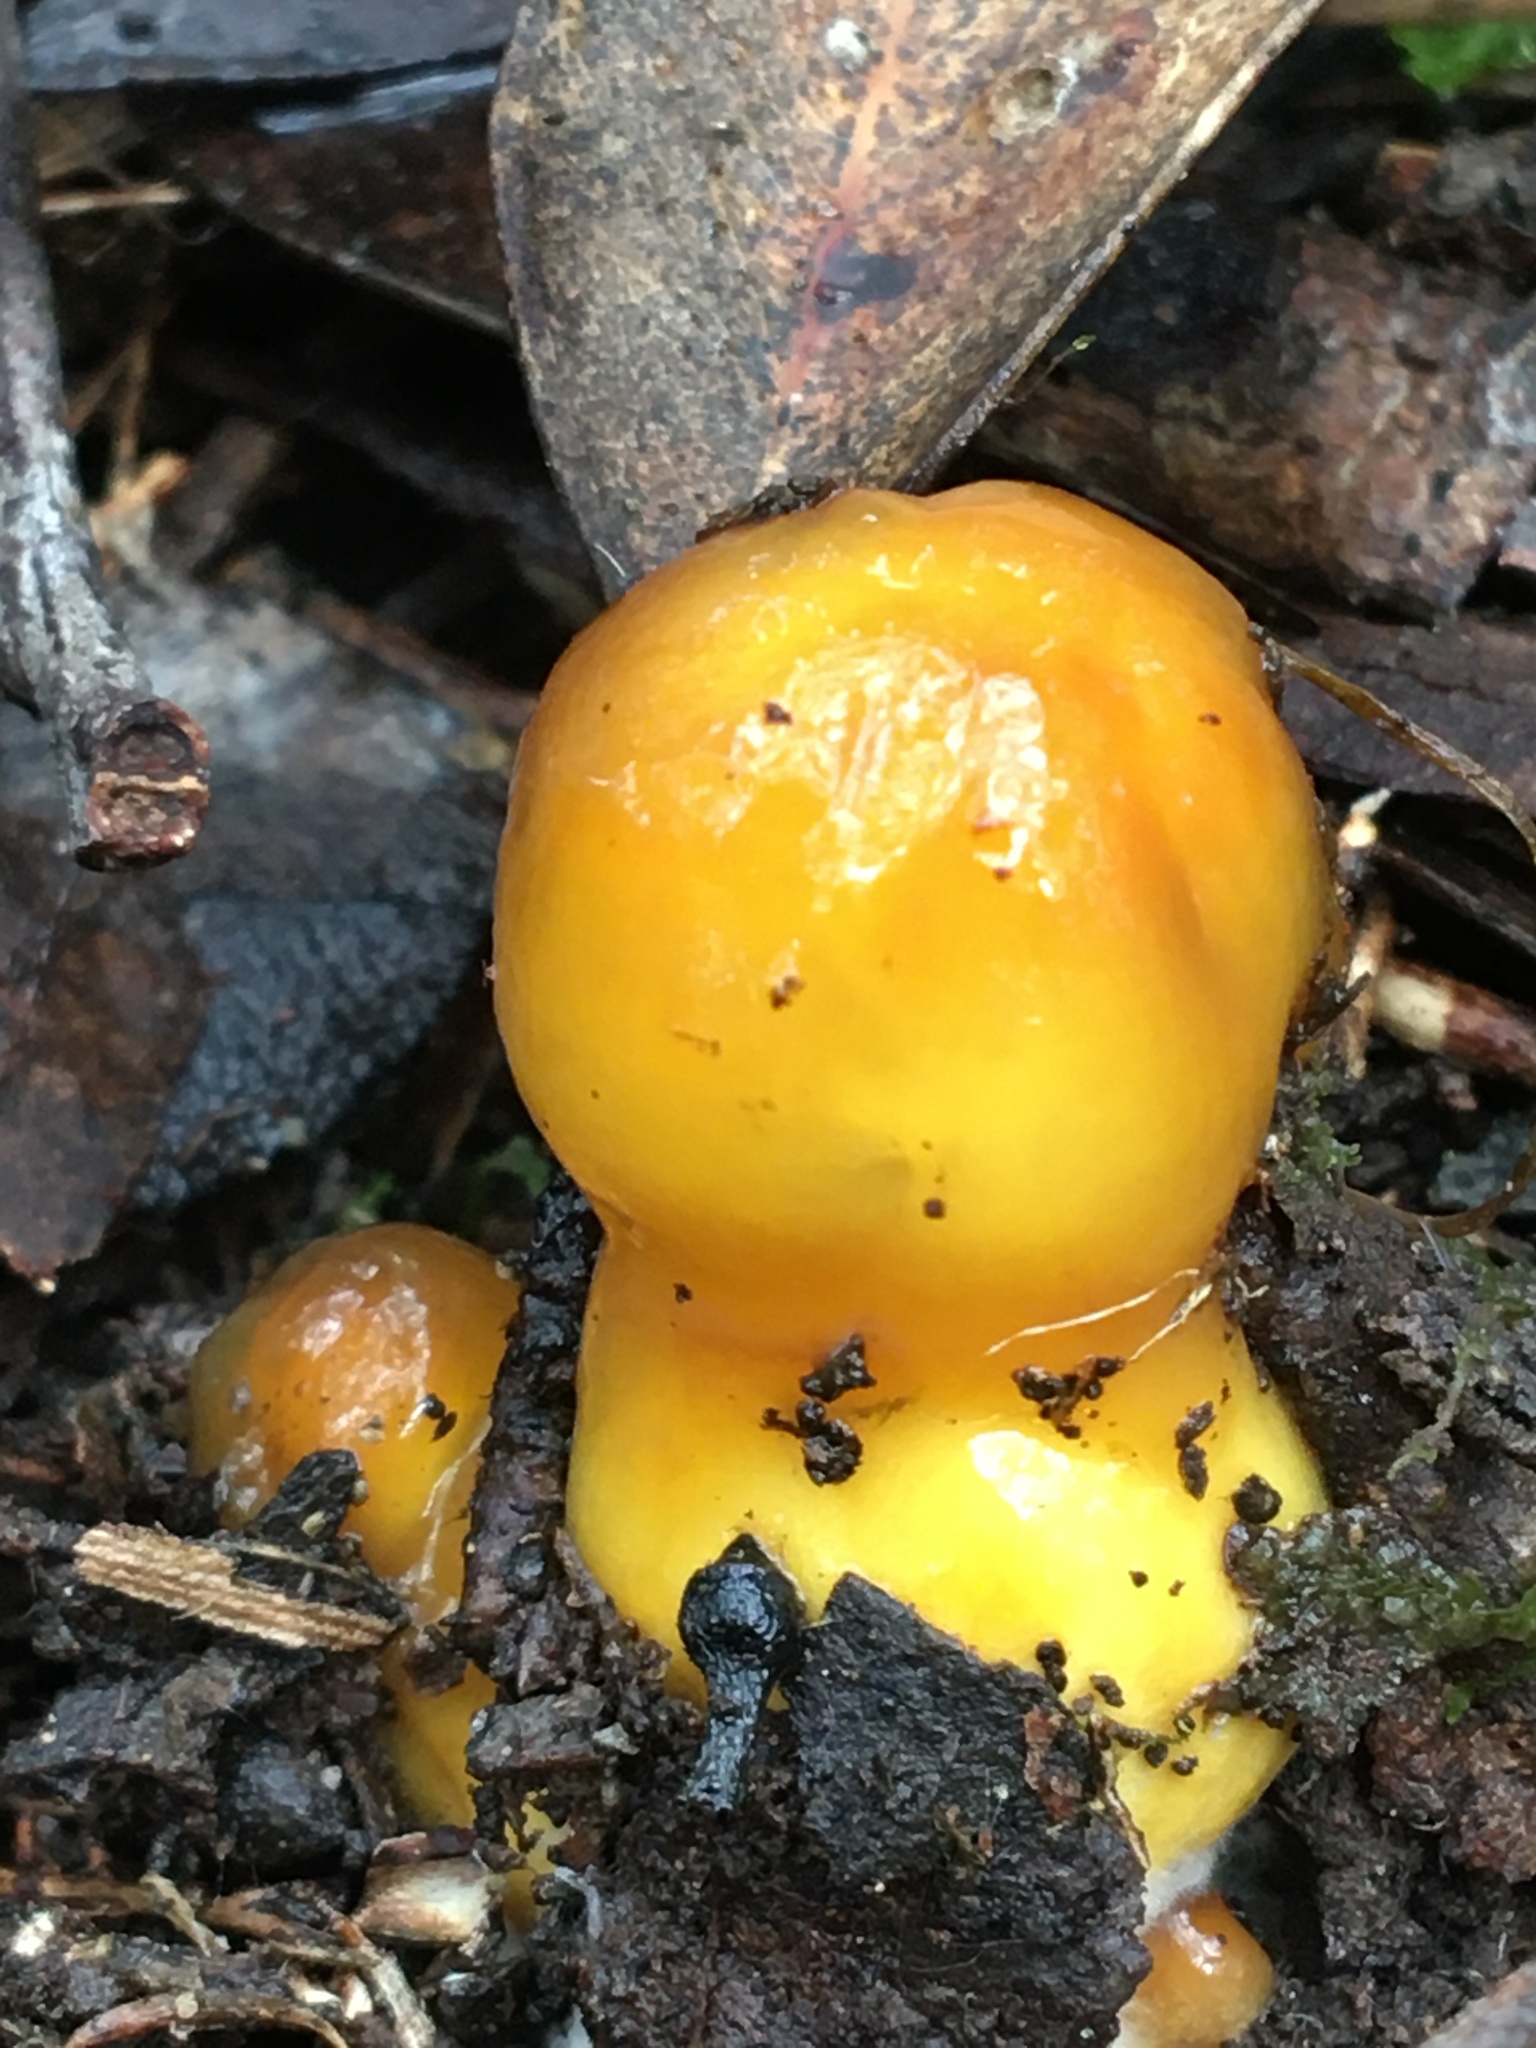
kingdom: Fungi
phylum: Basidiomycota
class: Agaricomycetes
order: Agaricales
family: Cortinariaceae
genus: Cortinarius
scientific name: Cortinarius sinapicolor
